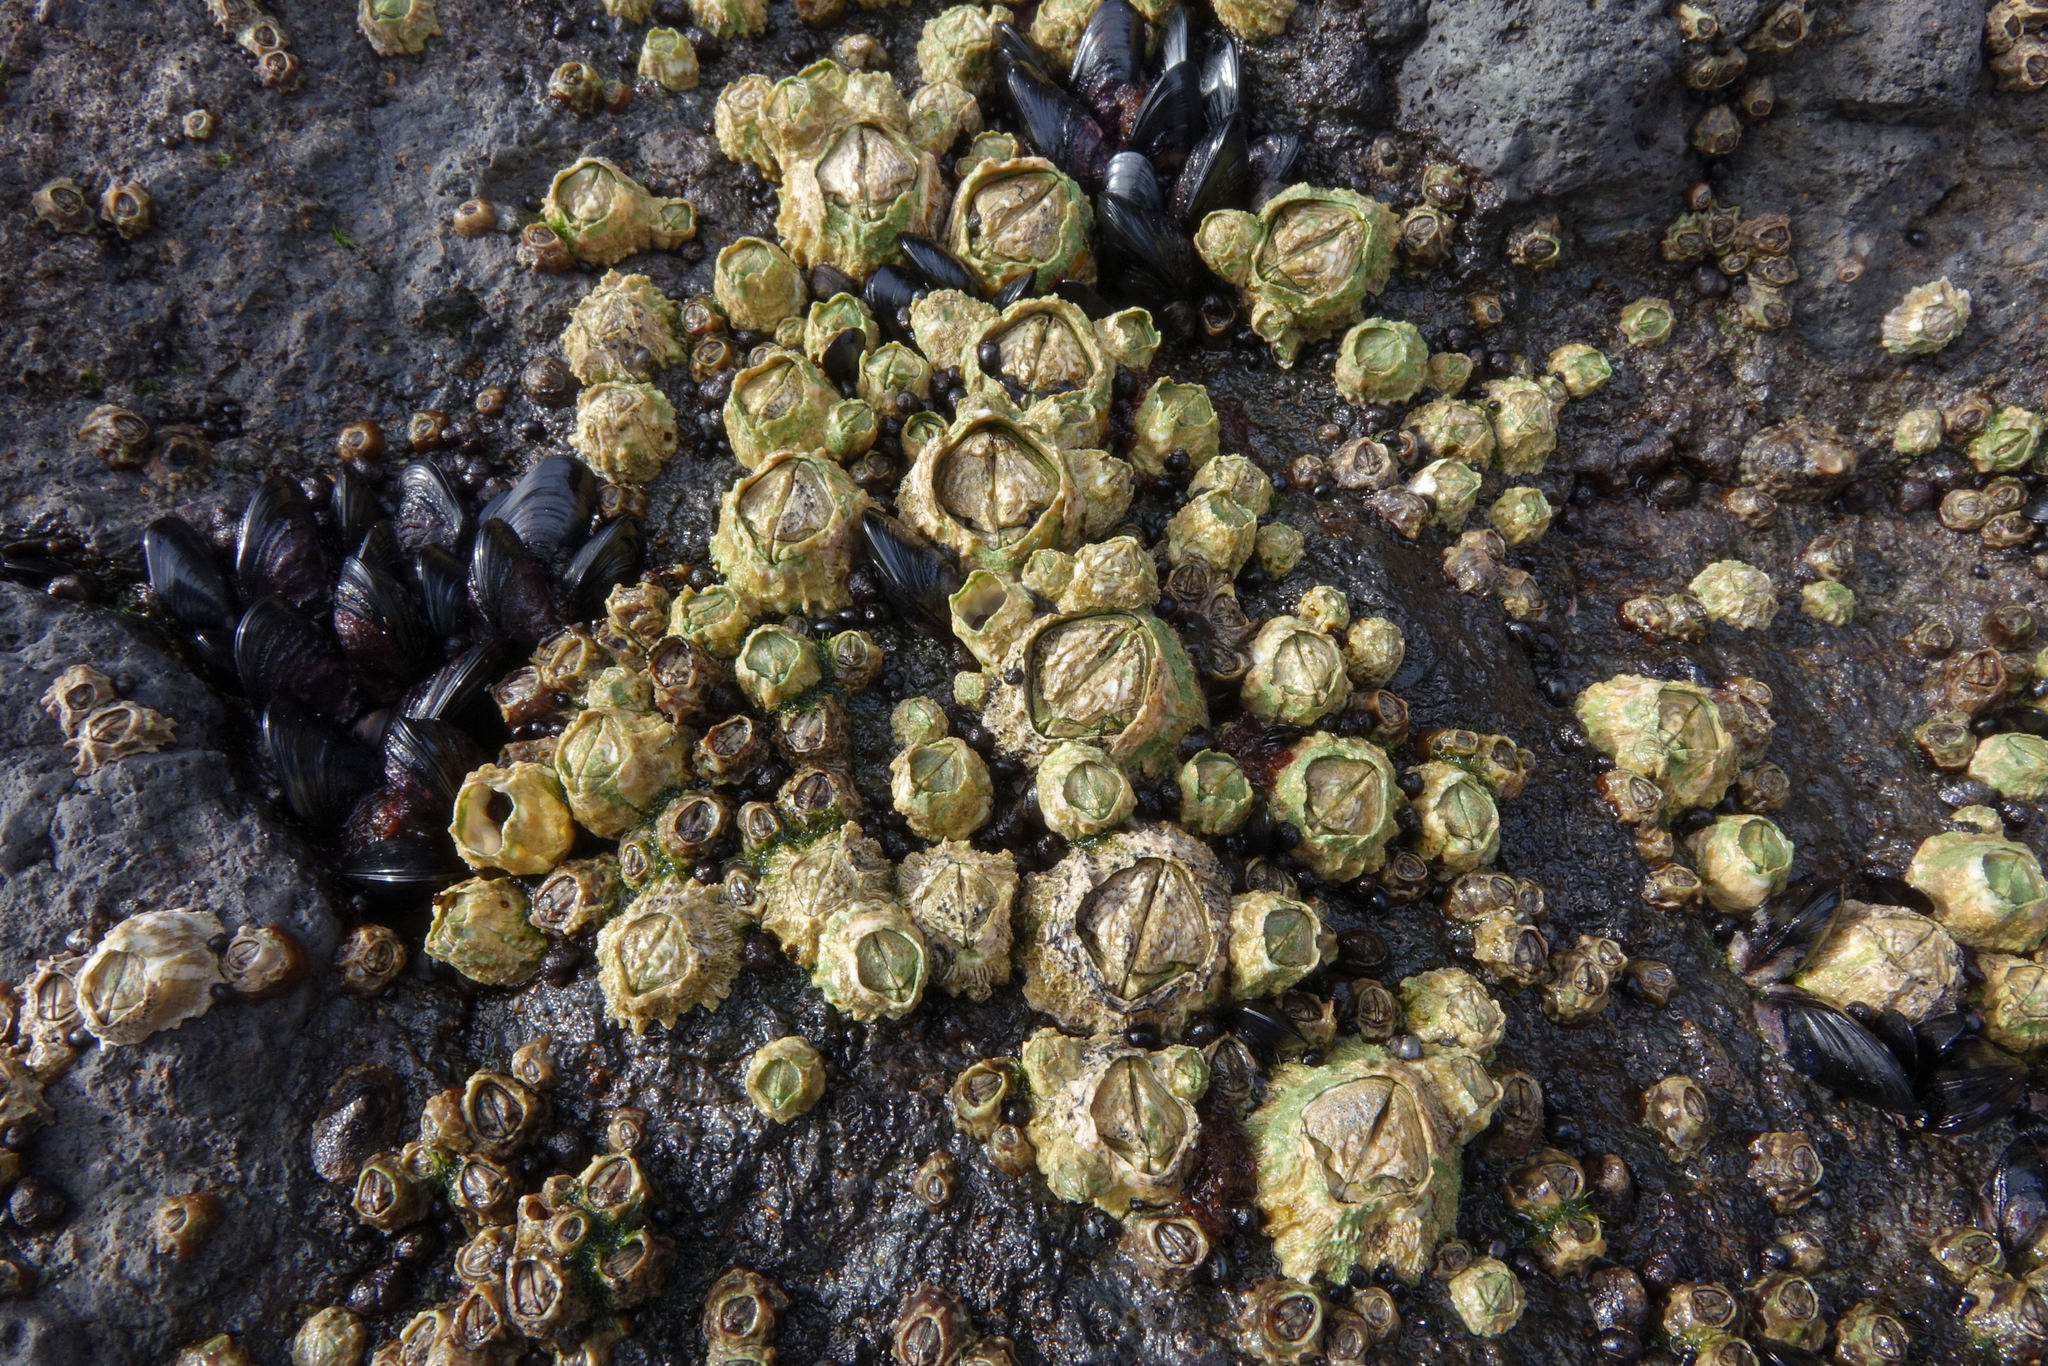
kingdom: Animalia
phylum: Arthropoda
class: Maxillopoda
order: Sessilia
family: Tetraclitidae
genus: Epopella
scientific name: Epopella plicata
